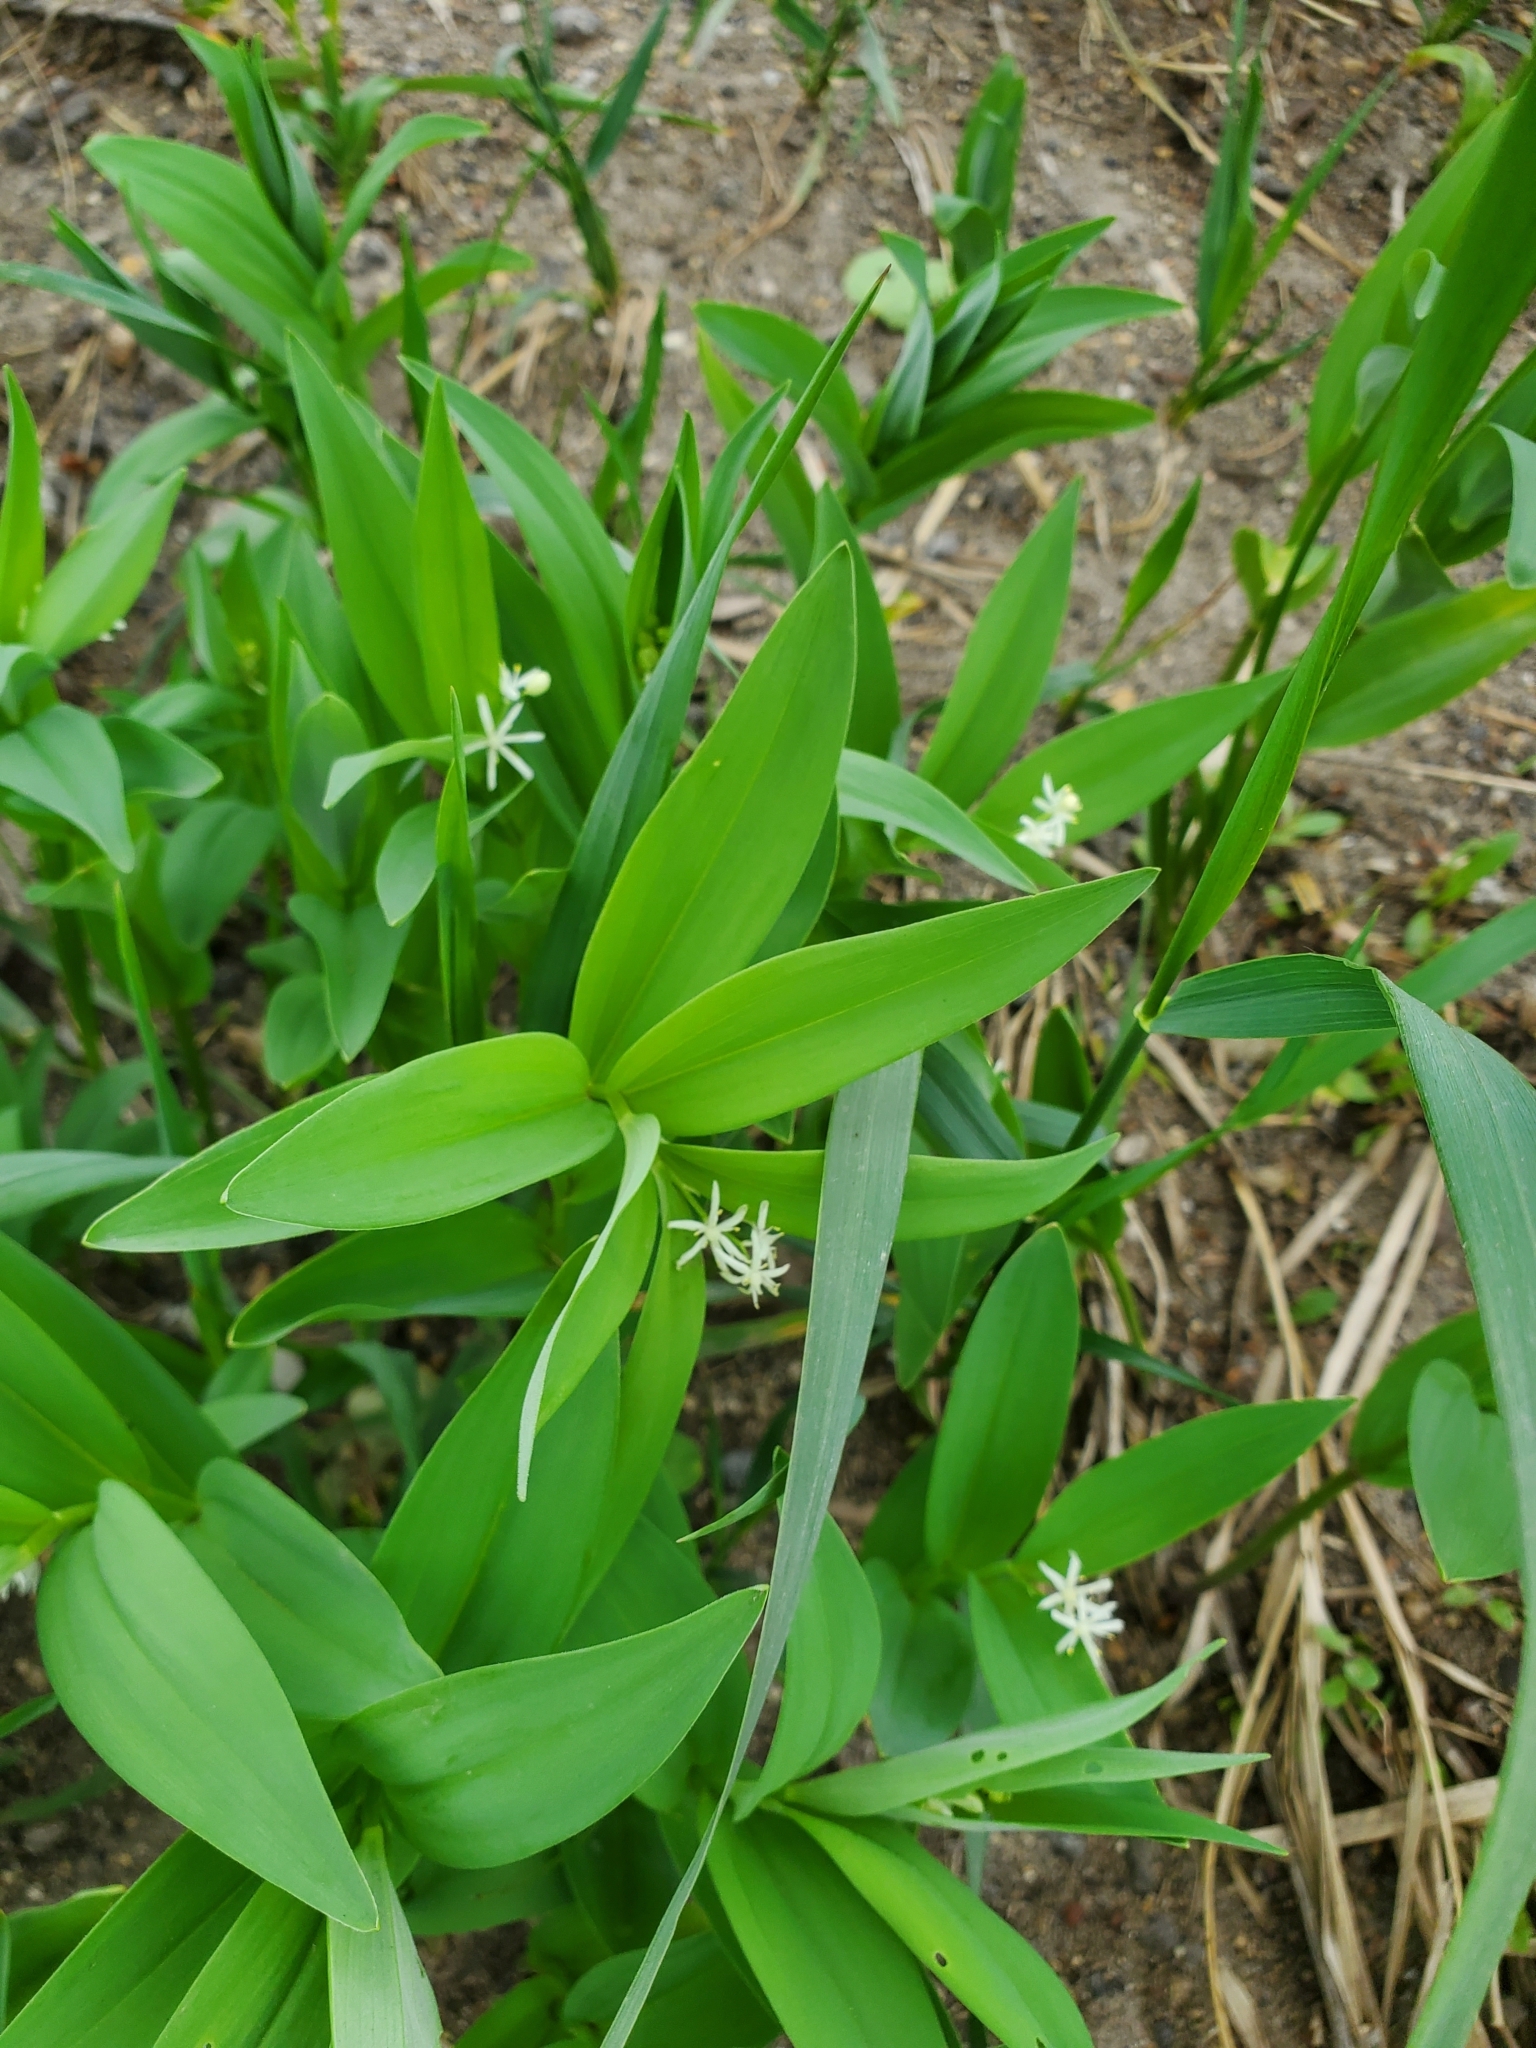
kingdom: Plantae
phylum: Tracheophyta
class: Liliopsida
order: Asparagales
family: Asparagaceae
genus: Maianthemum
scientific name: Maianthemum stellatum
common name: Little false solomon's seal
